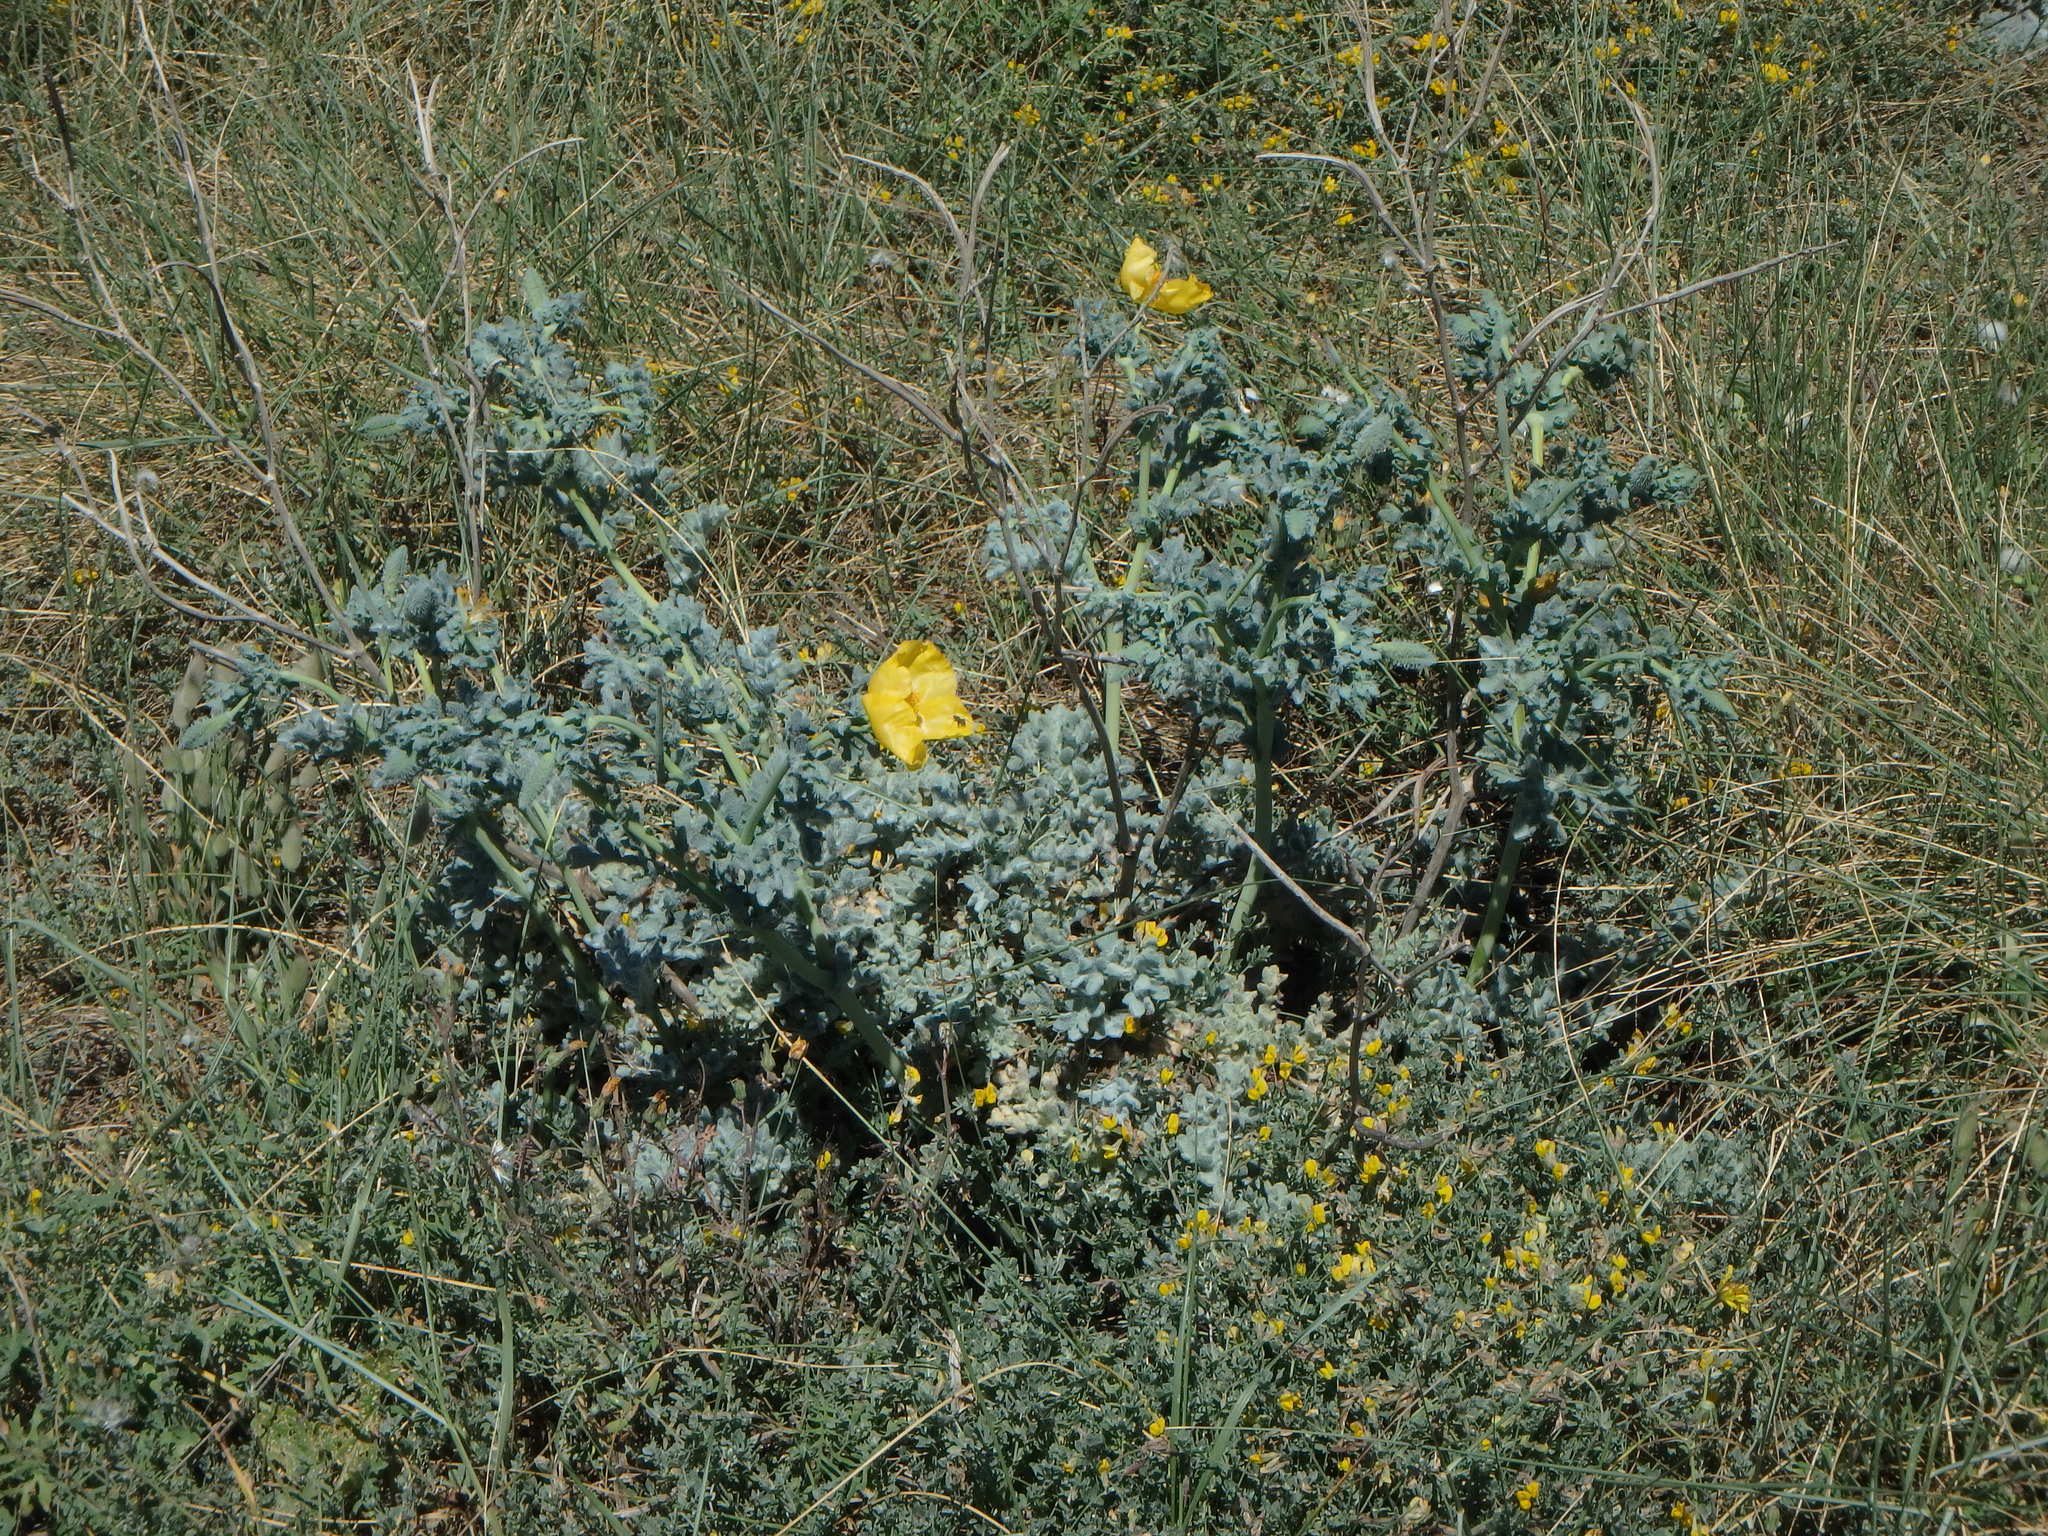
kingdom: Plantae
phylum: Tracheophyta
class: Magnoliopsida
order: Ranunculales
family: Papaveraceae
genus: Glaucium
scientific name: Glaucium flavum
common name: Yellow horned-poppy
